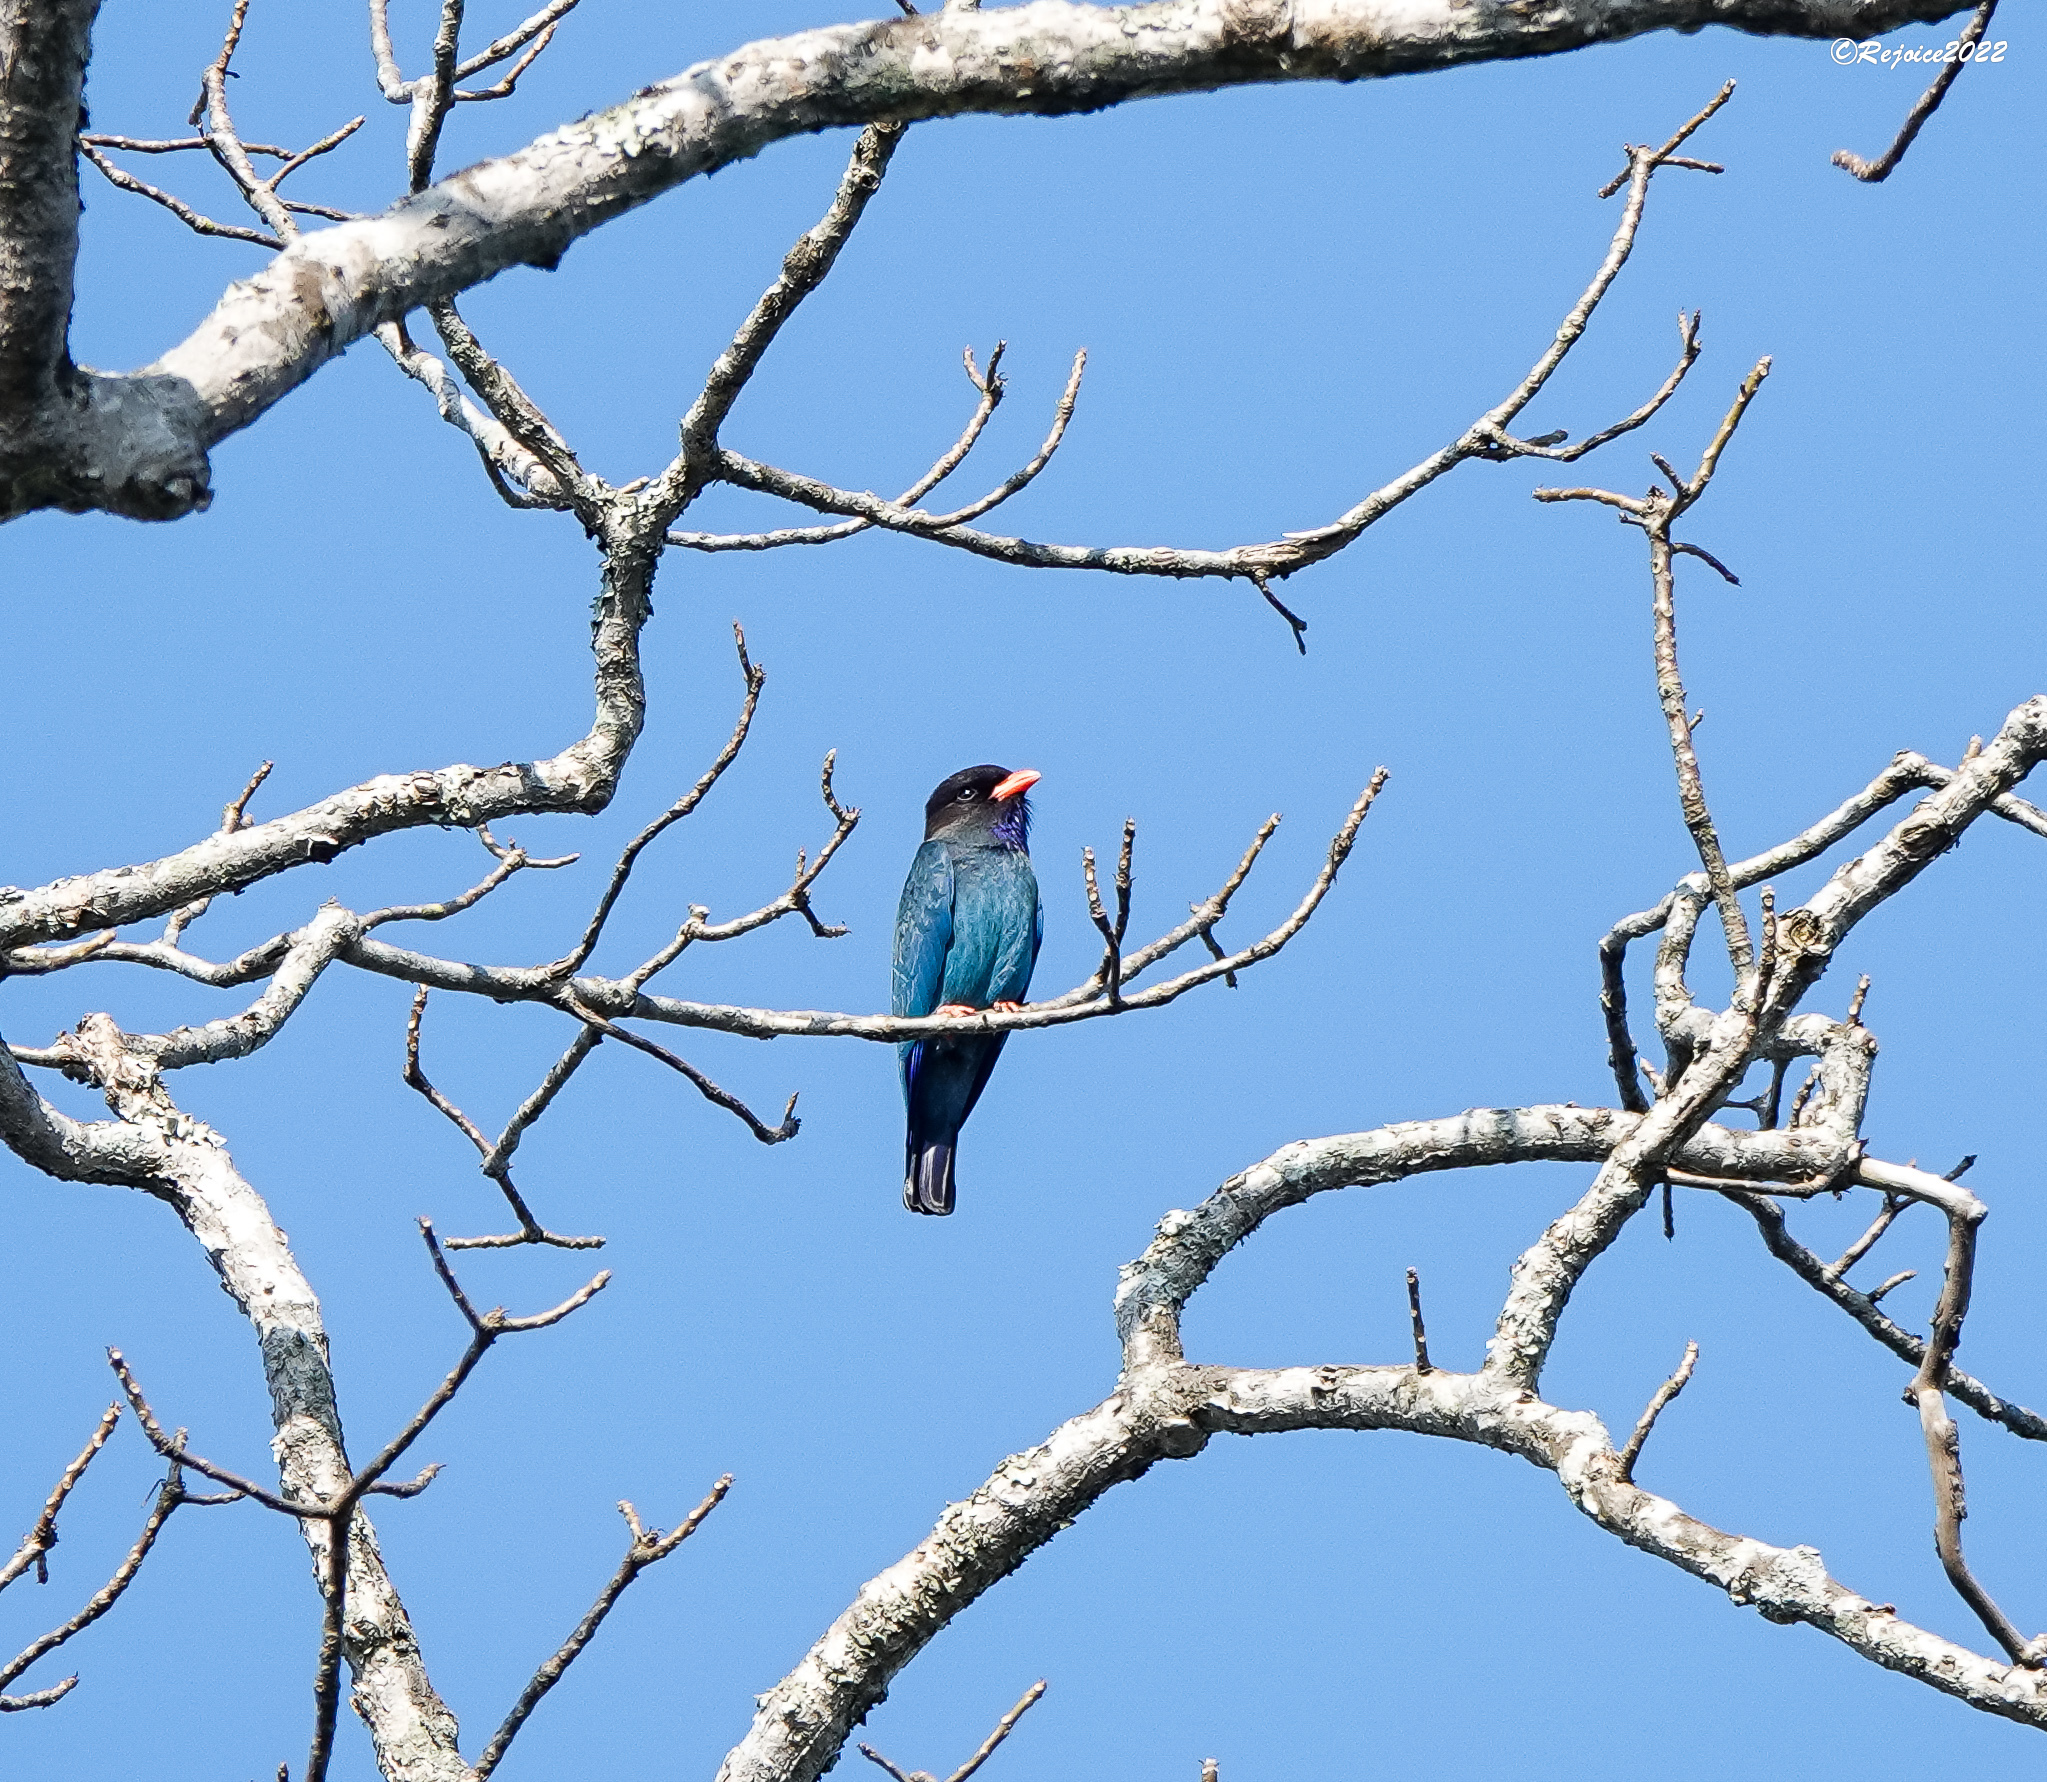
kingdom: Animalia
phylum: Chordata
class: Aves
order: Coraciiformes
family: Coraciidae
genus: Eurystomus
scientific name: Eurystomus orientalis
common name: Oriental dollarbird
